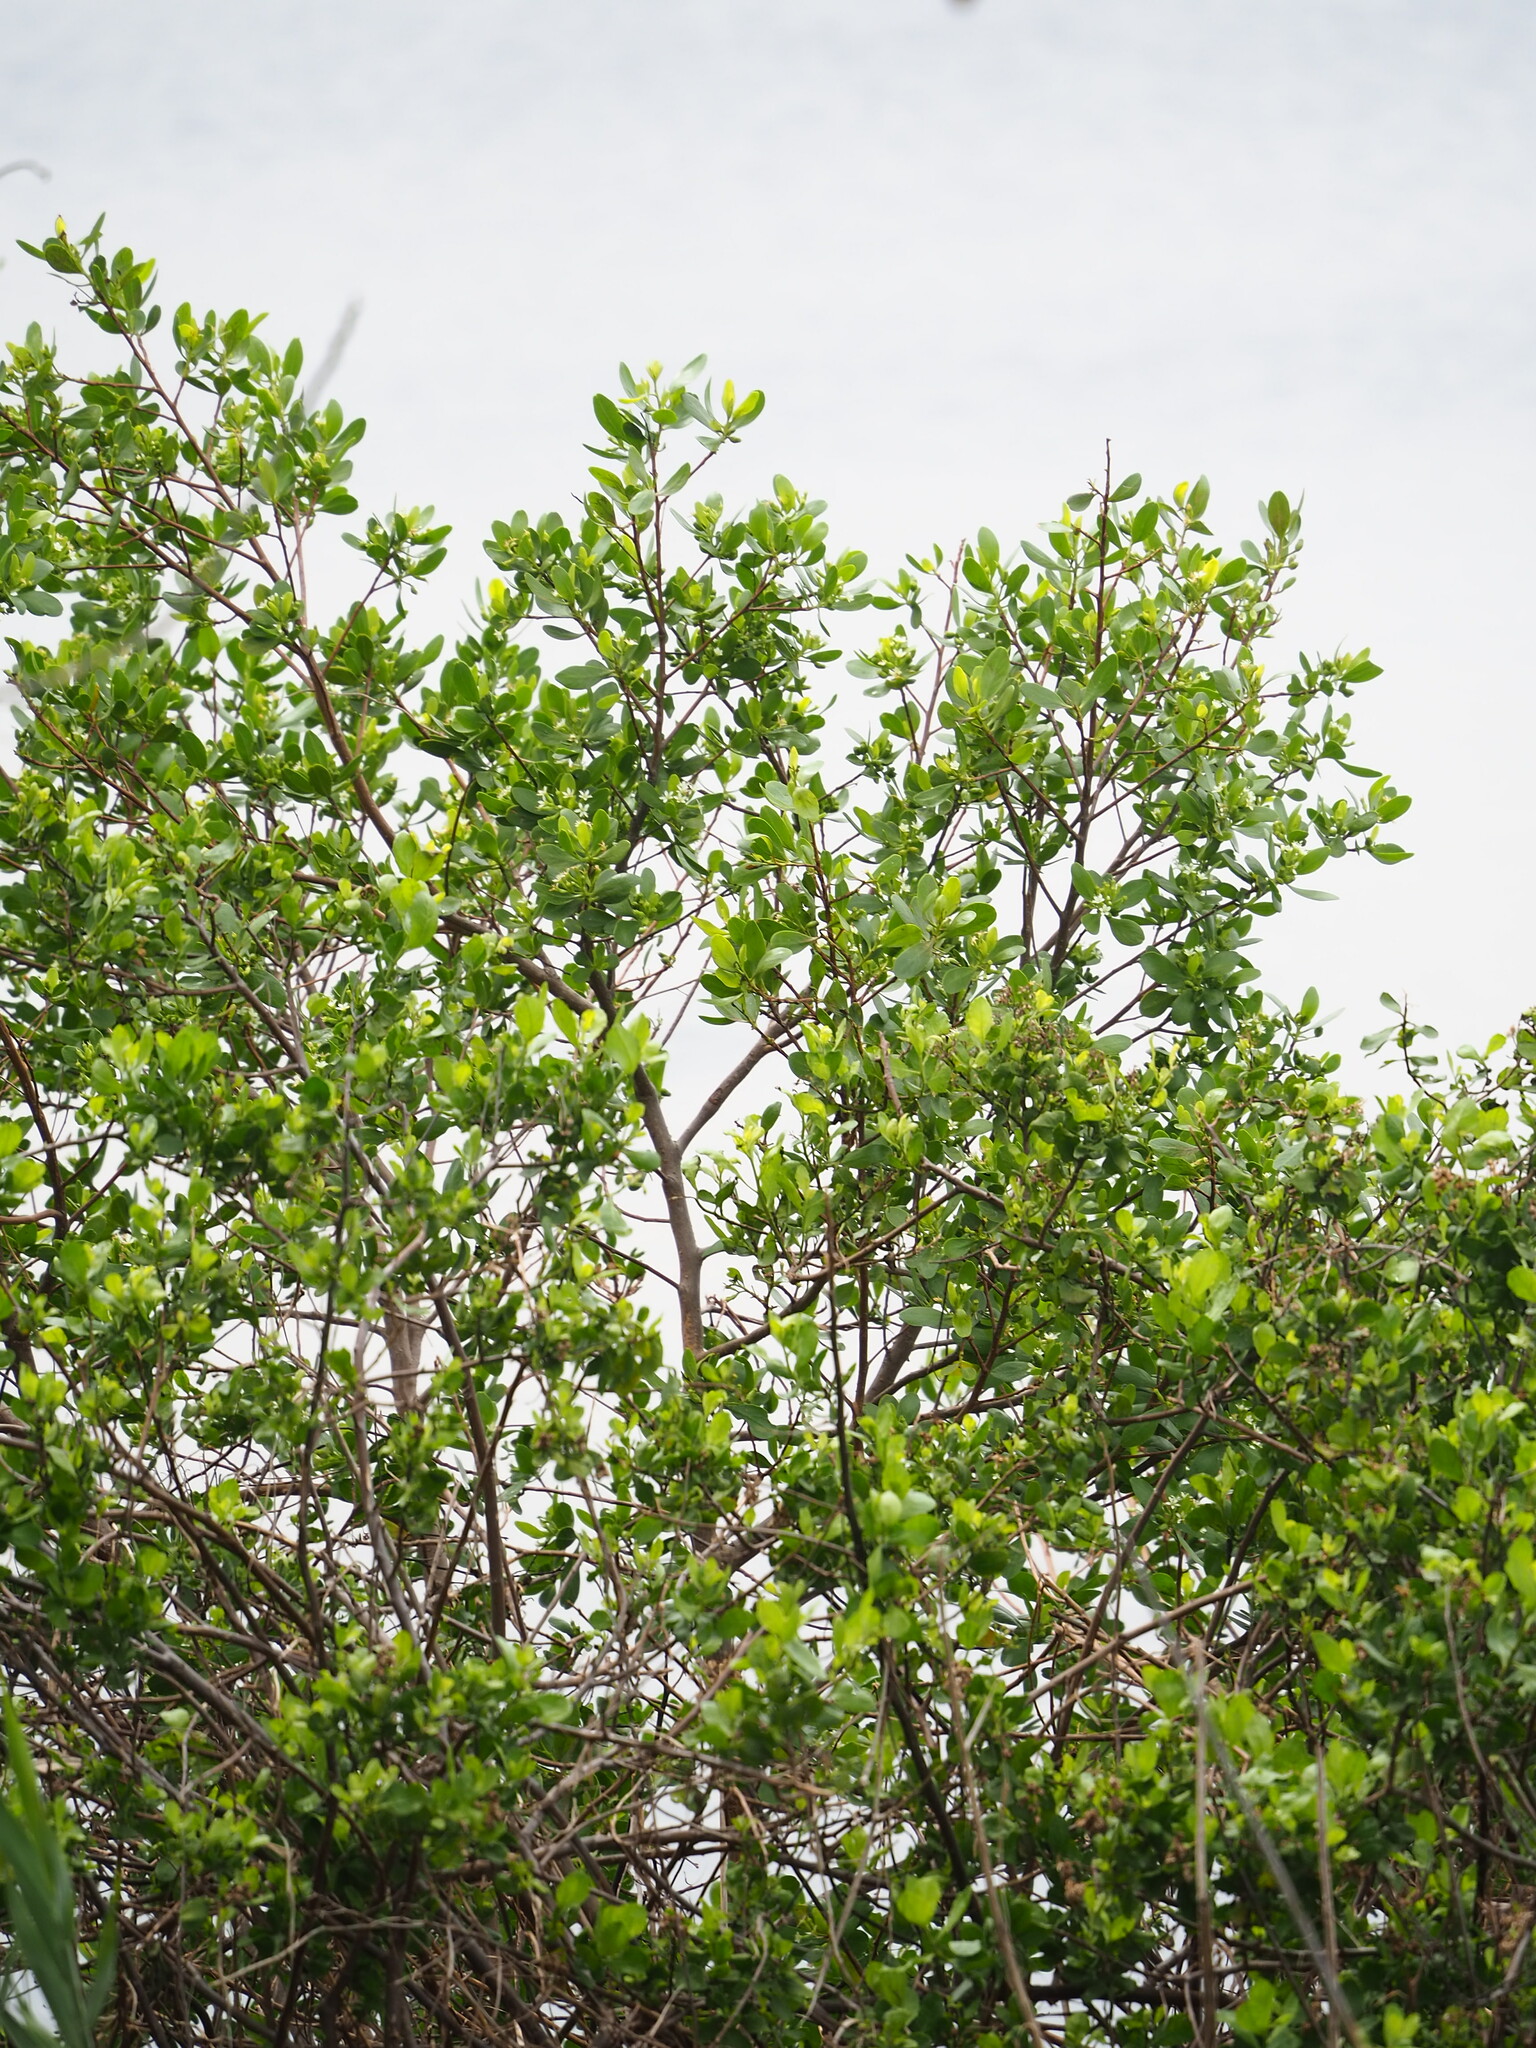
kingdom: Plantae
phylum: Tracheophyta
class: Magnoliopsida
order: Myrtales
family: Combretaceae
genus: Lumnitzera
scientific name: Lumnitzera racemosa
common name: White-flowered black mangrove
